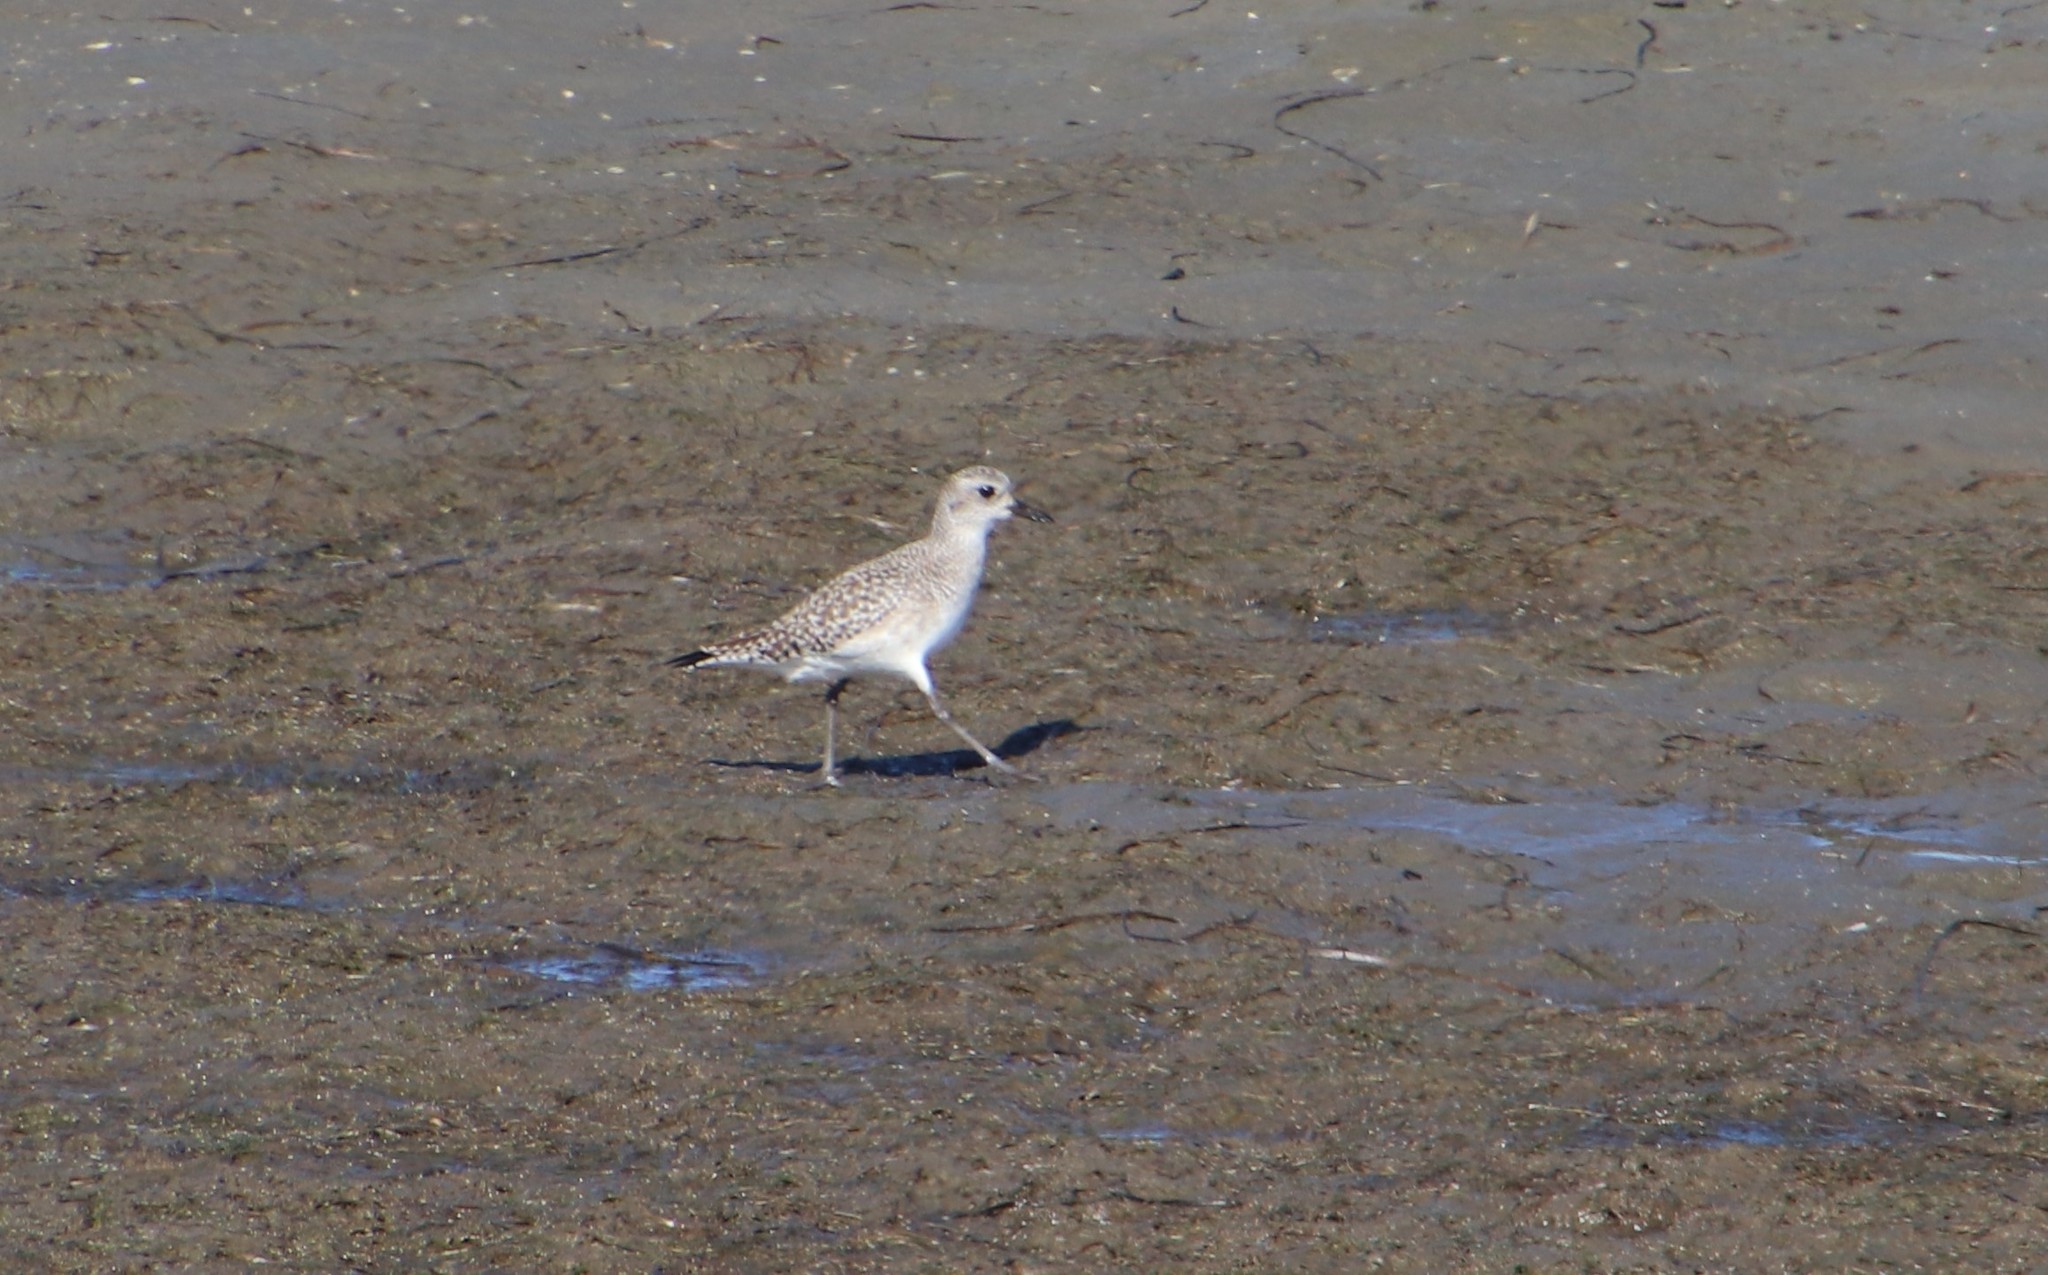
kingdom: Animalia
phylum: Chordata
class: Aves
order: Charadriiformes
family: Charadriidae
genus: Pluvialis
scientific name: Pluvialis squatarola
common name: Grey plover
